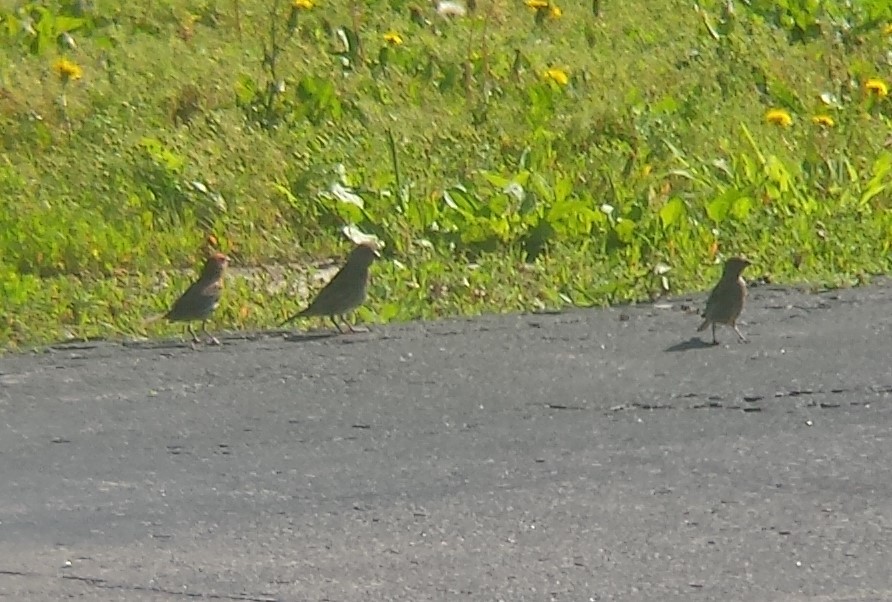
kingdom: Animalia
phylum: Chordata
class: Aves
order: Passeriformes
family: Fringillidae
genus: Haemorhous
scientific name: Haemorhous mexicanus
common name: House finch
